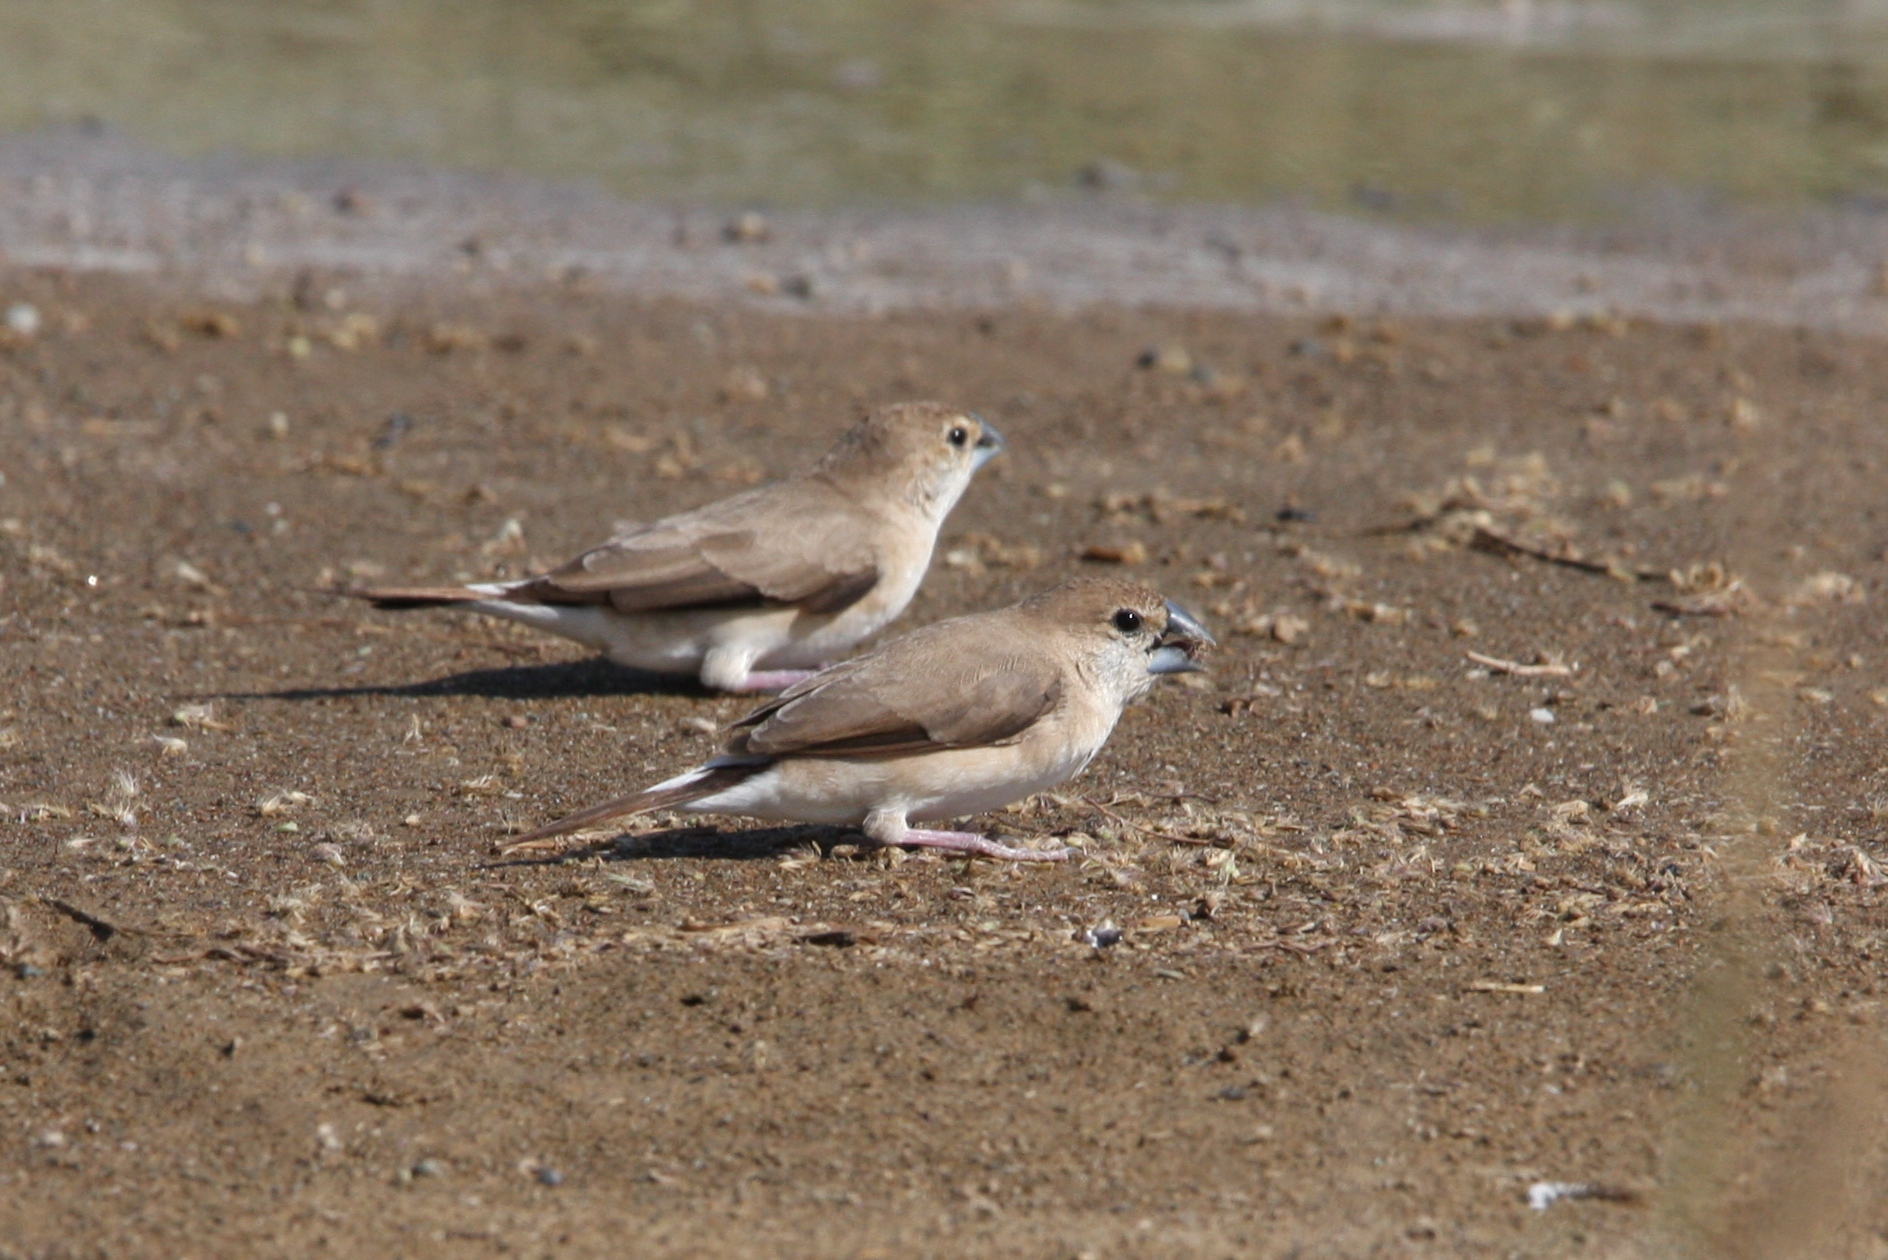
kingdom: Animalia
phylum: Chordata
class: Aves
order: Passeriformes
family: Estrildidae
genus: Euodice
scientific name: Euodice malabarica
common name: Indian silverbill
